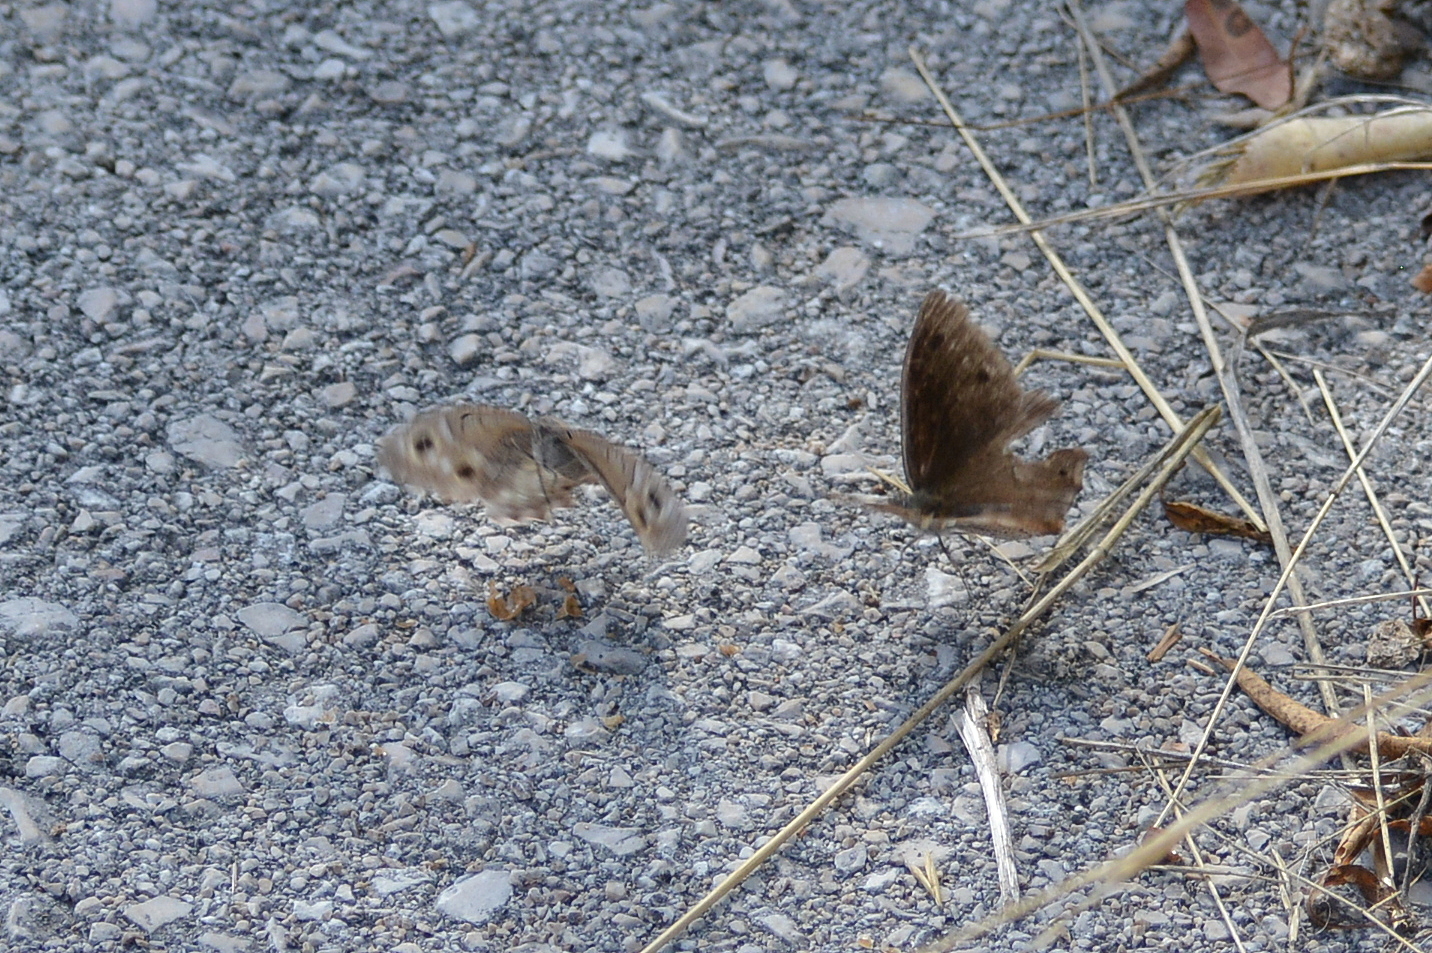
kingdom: Animalia
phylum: Arthropoda
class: Insecta
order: Lepidoptera
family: Nymphalidae
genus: Hipparchia
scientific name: Hipparchia statilinus
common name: Tree grayling
